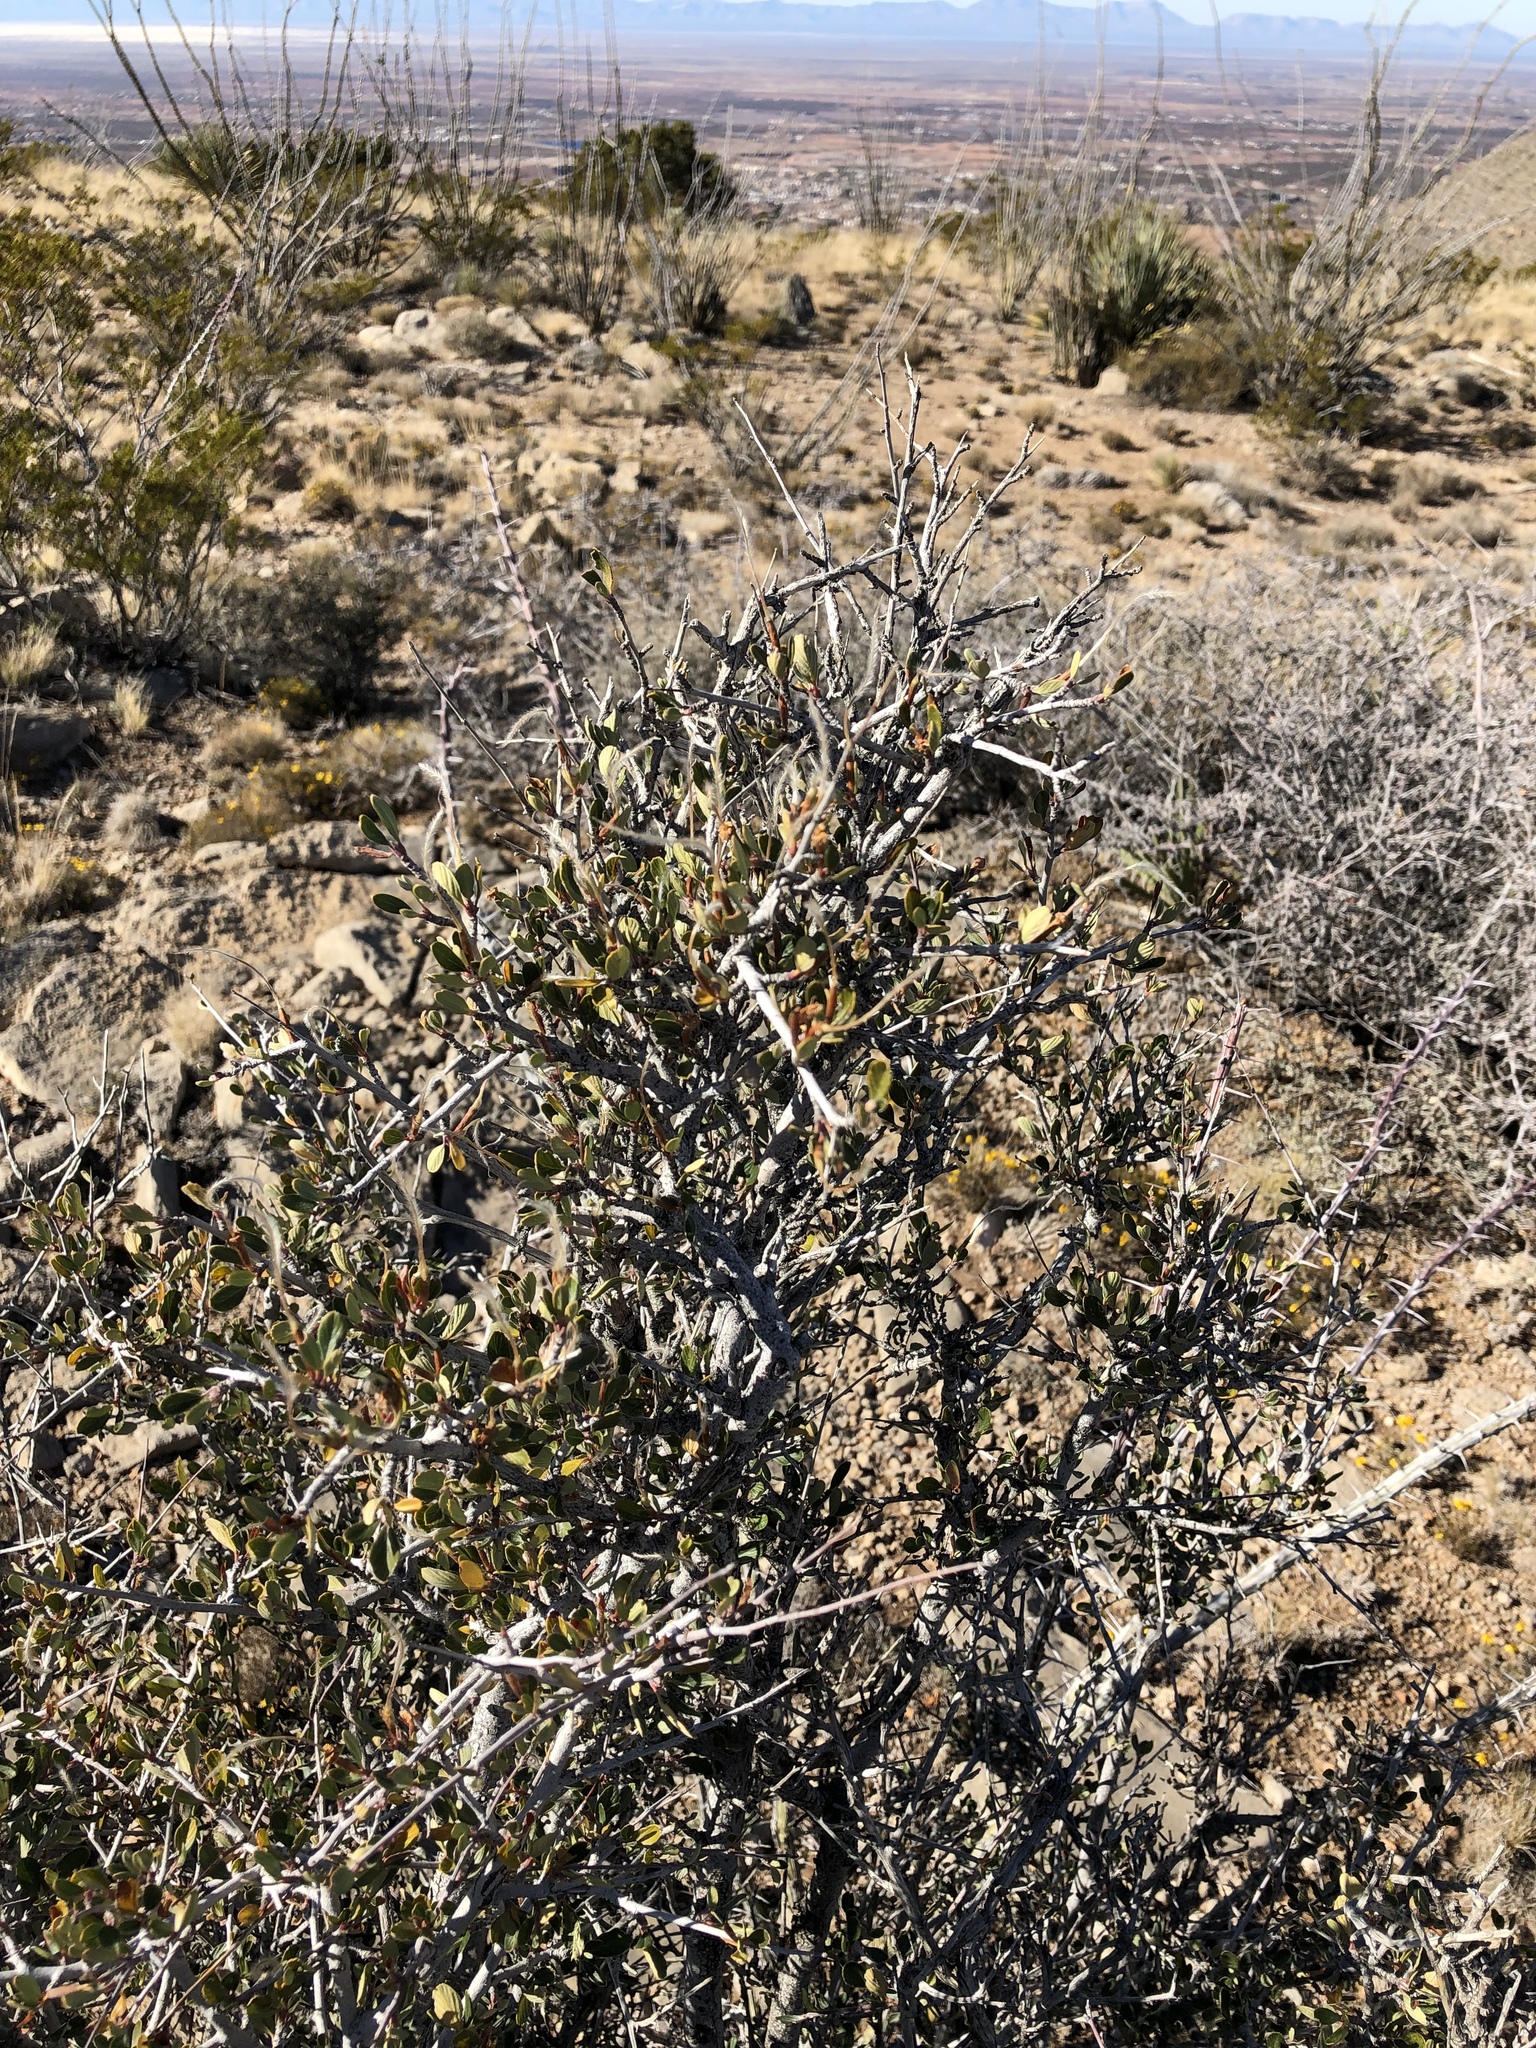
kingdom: Plantae
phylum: Tracheophyta
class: Magnoliopsida
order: Rosales
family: Rosaceae
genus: Cercocarpus
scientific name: Cercocarpus breviflorus
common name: Wright's mountain-mahogany
